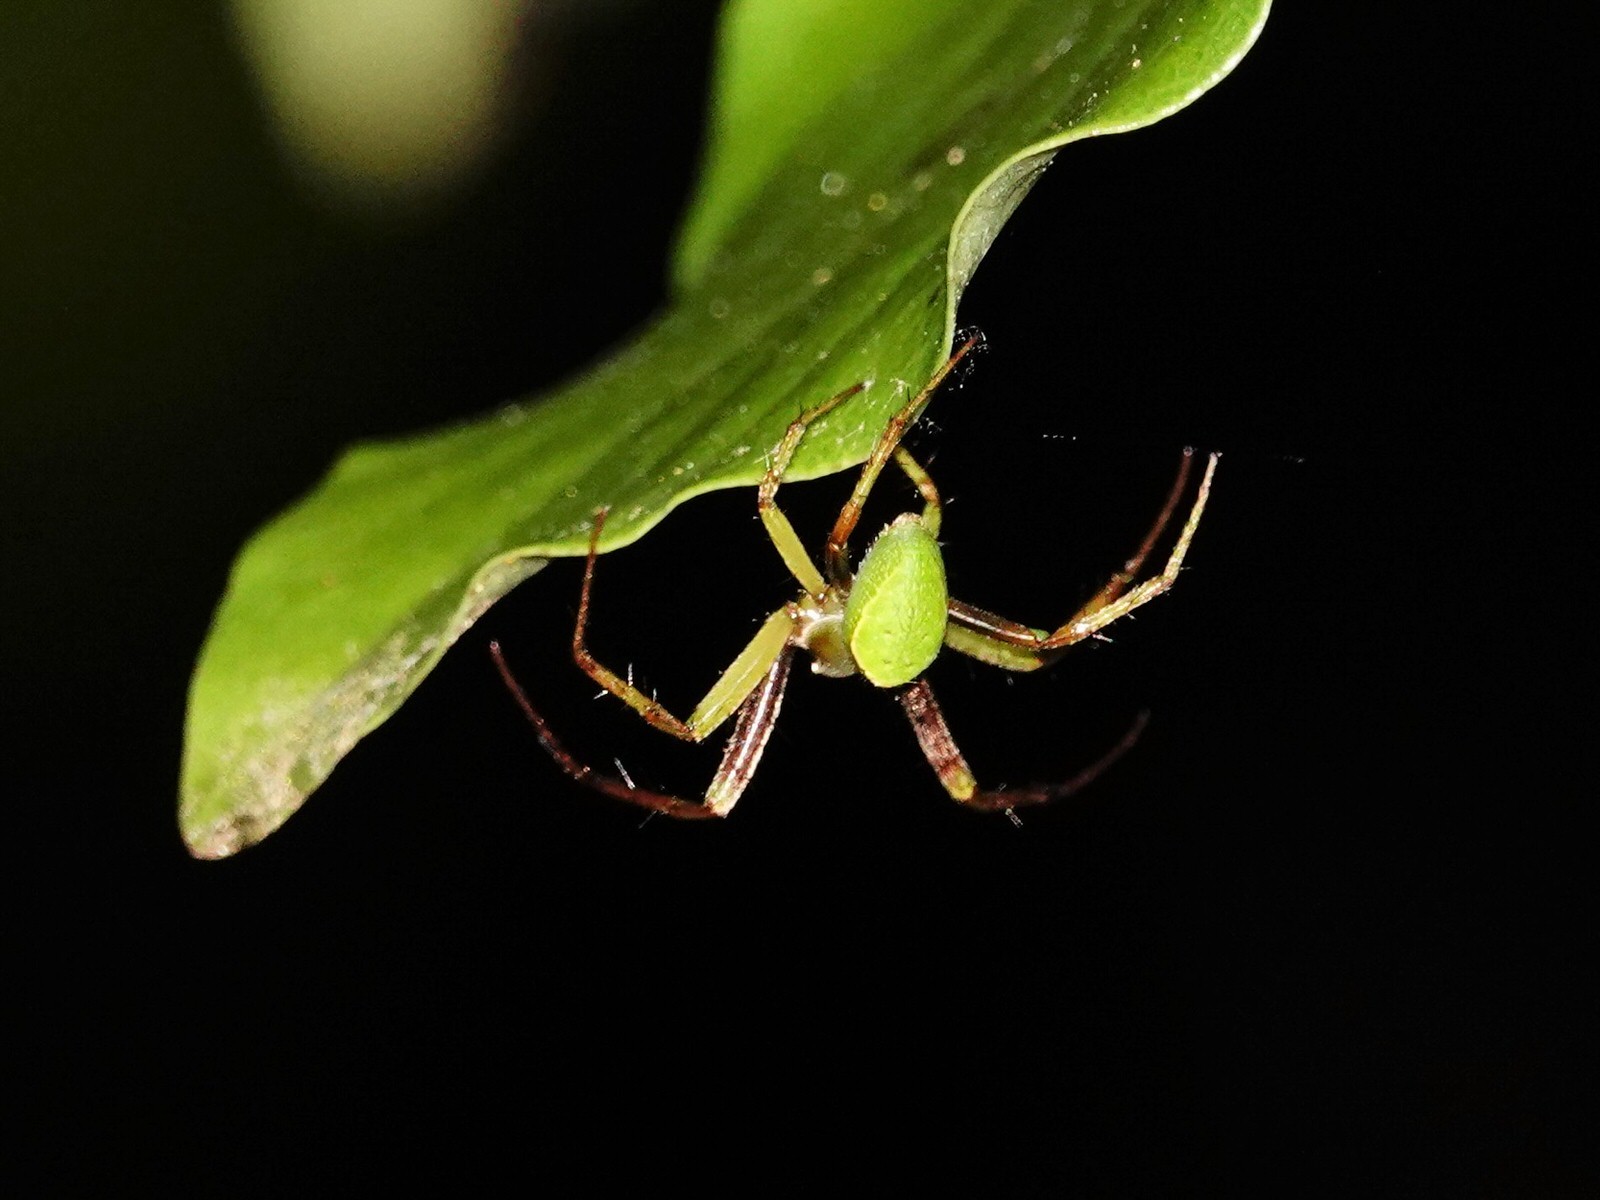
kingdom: Animalia
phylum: Arthropoda
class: Arachnida
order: Araneae
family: Araneidae
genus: Colaranea
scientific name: Colaranea viriditas
